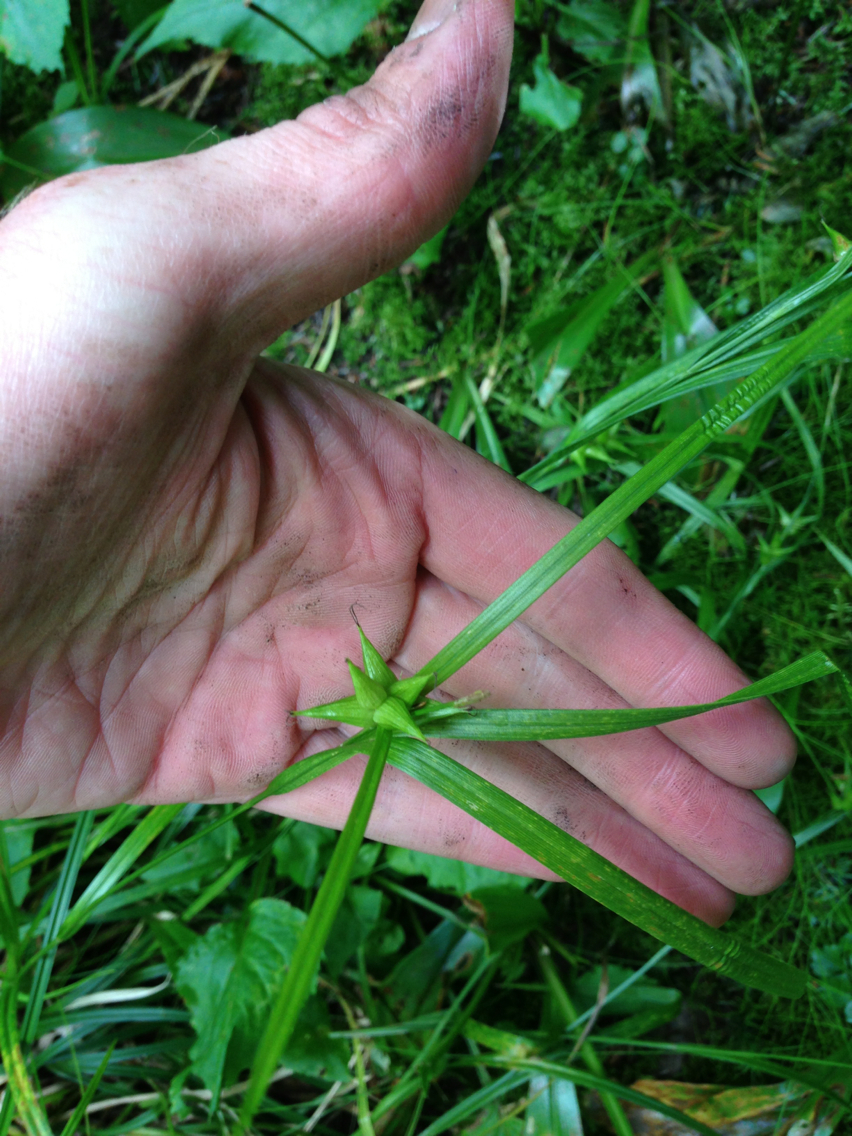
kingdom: Plantae
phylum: Tracheophyta
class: Liliopsida
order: Poales
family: Cyperaceae
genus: Carex
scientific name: Carex intumescens
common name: Greater bladder sedge
